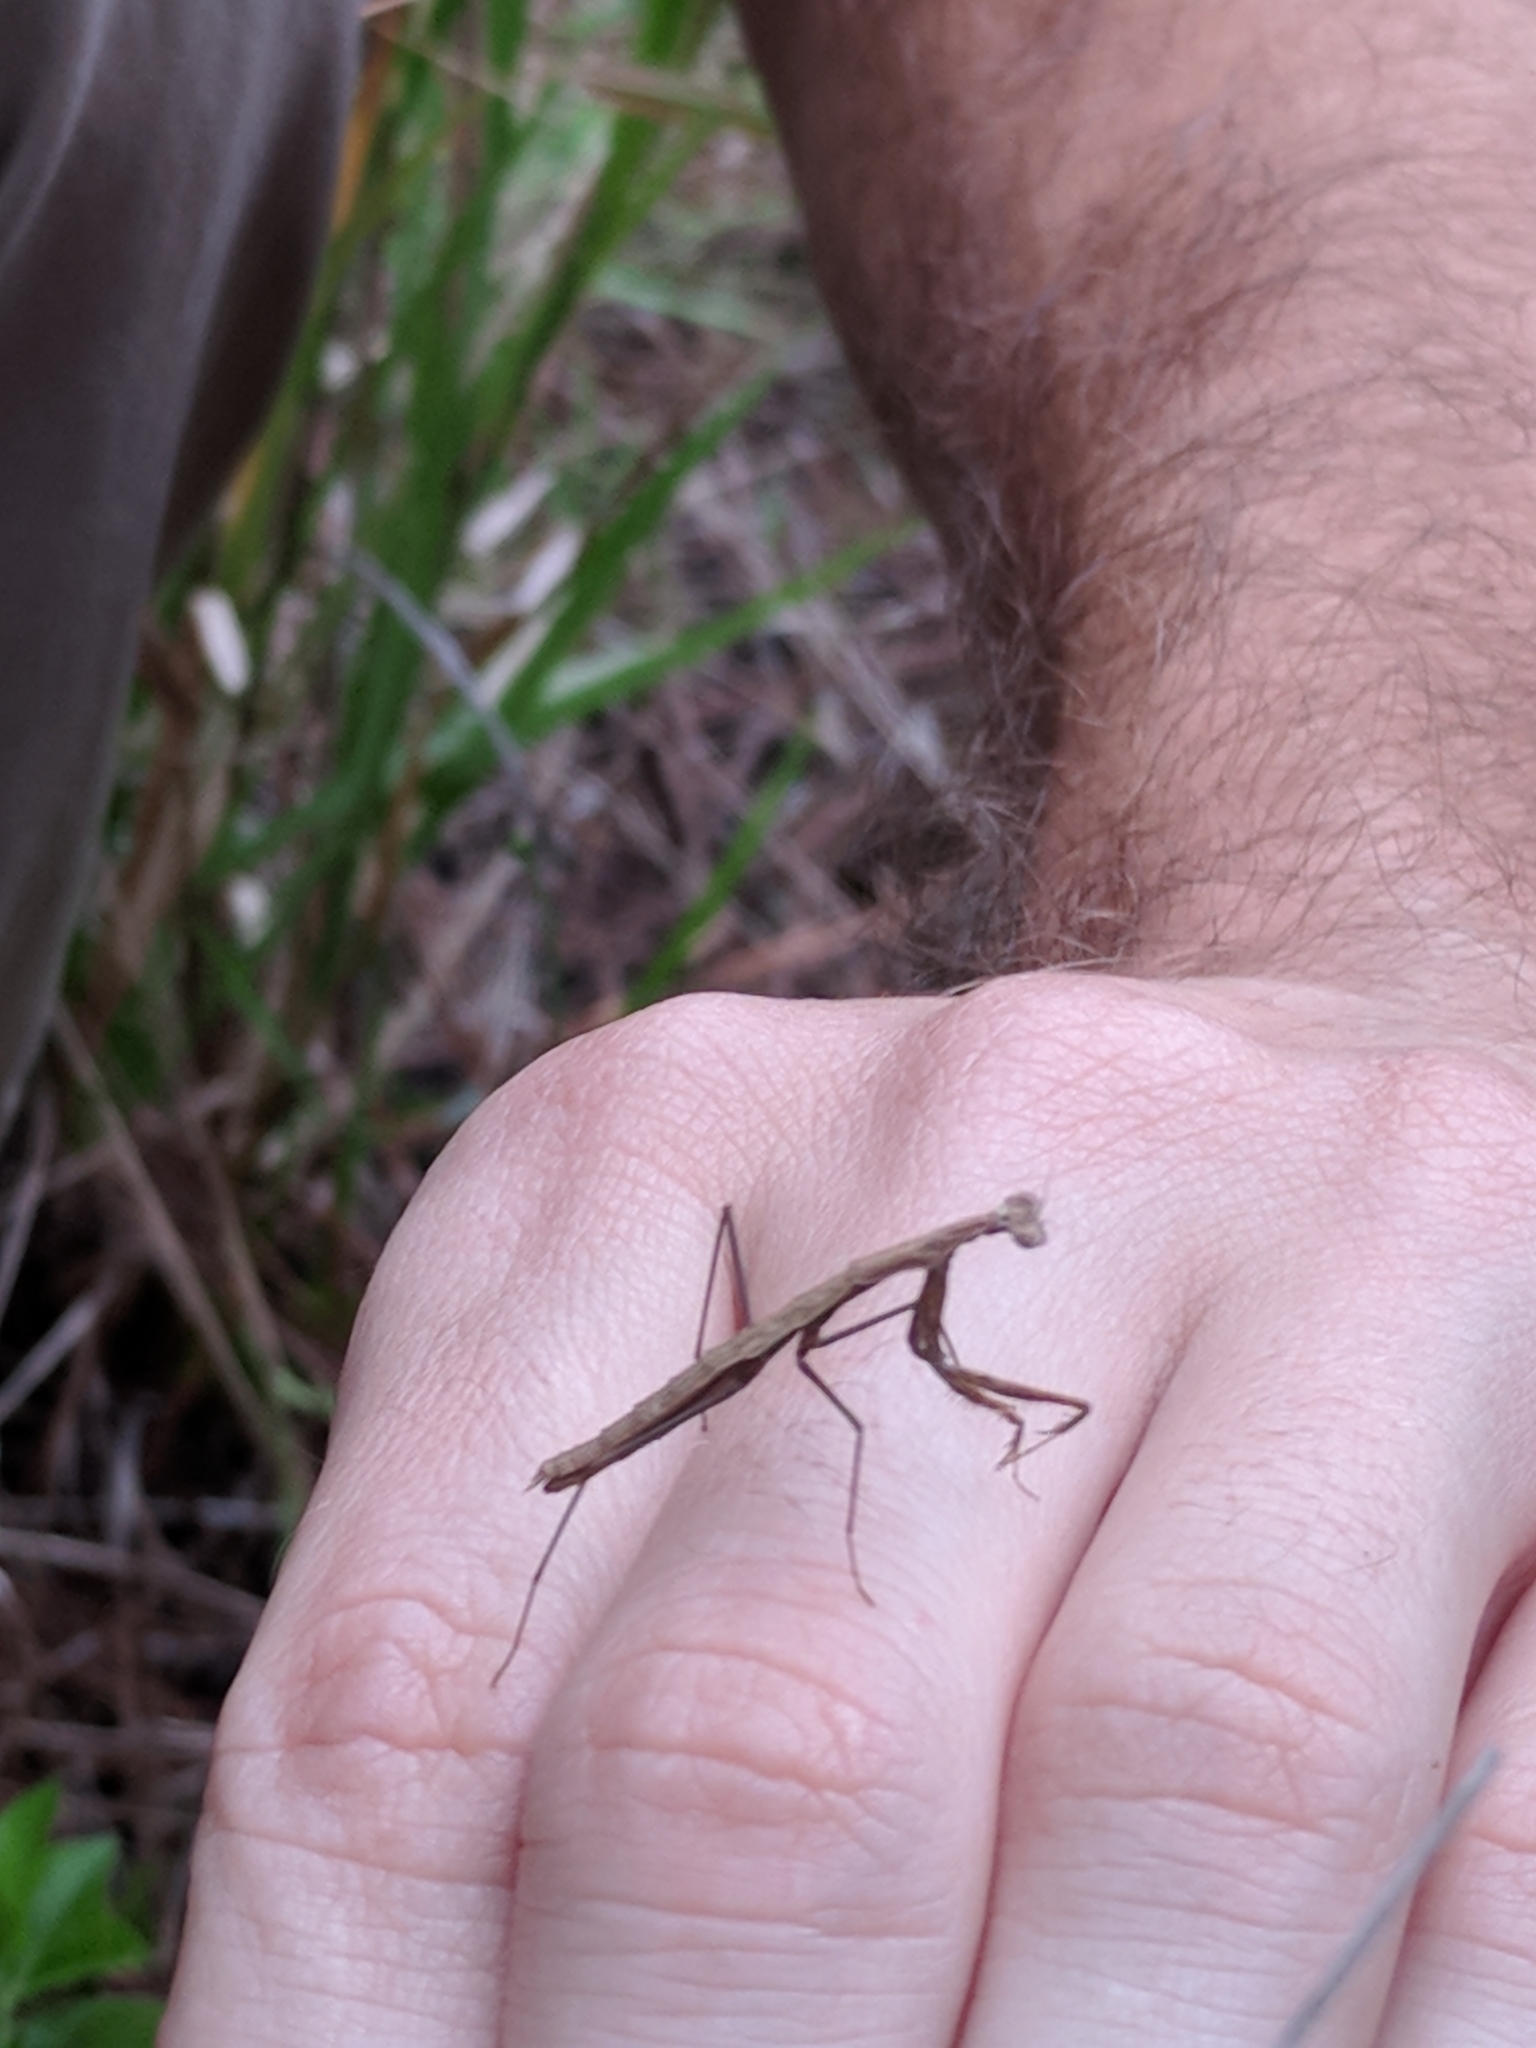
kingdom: Animalia
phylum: Arthropoda
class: Insecta
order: Mantodea
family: Thespidae
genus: Oligonicella
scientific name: Oligonicella scudderi
